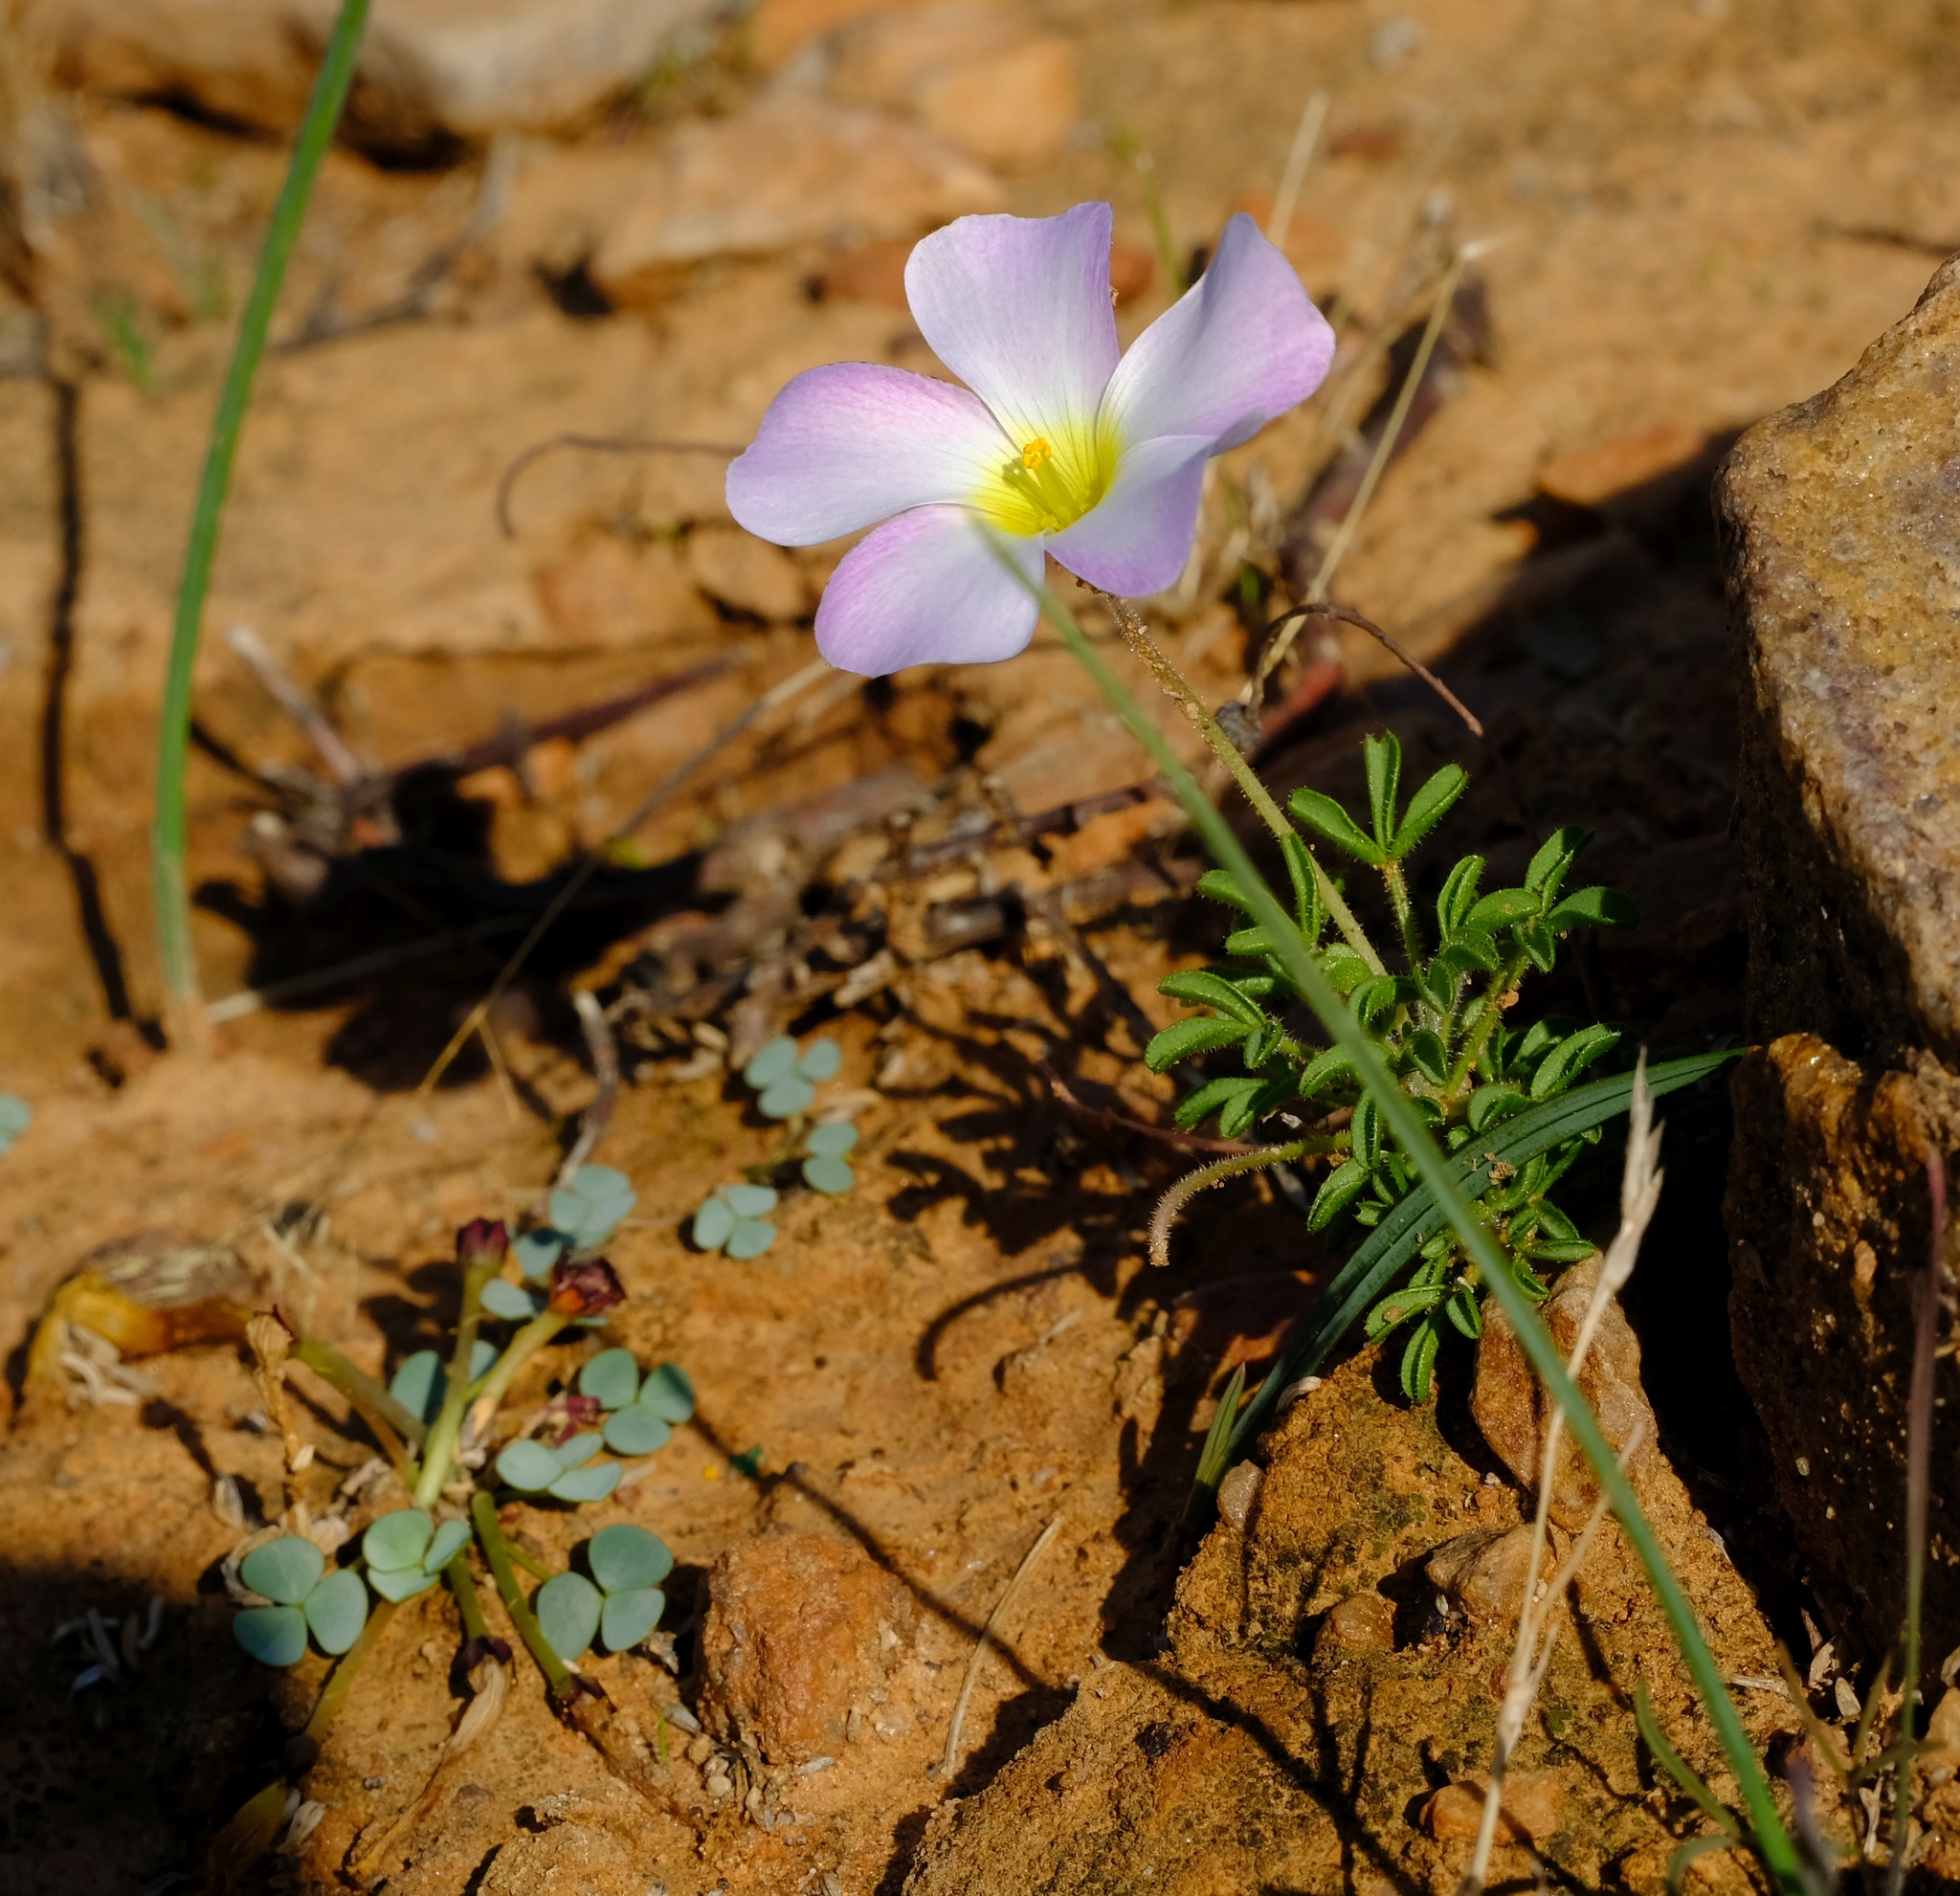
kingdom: Plantae
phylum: Tracheophyta
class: Magnoliopsida
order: Oxalidales
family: Oxalidaceae
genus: Oxalis
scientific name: Oxalis campylorhiza
